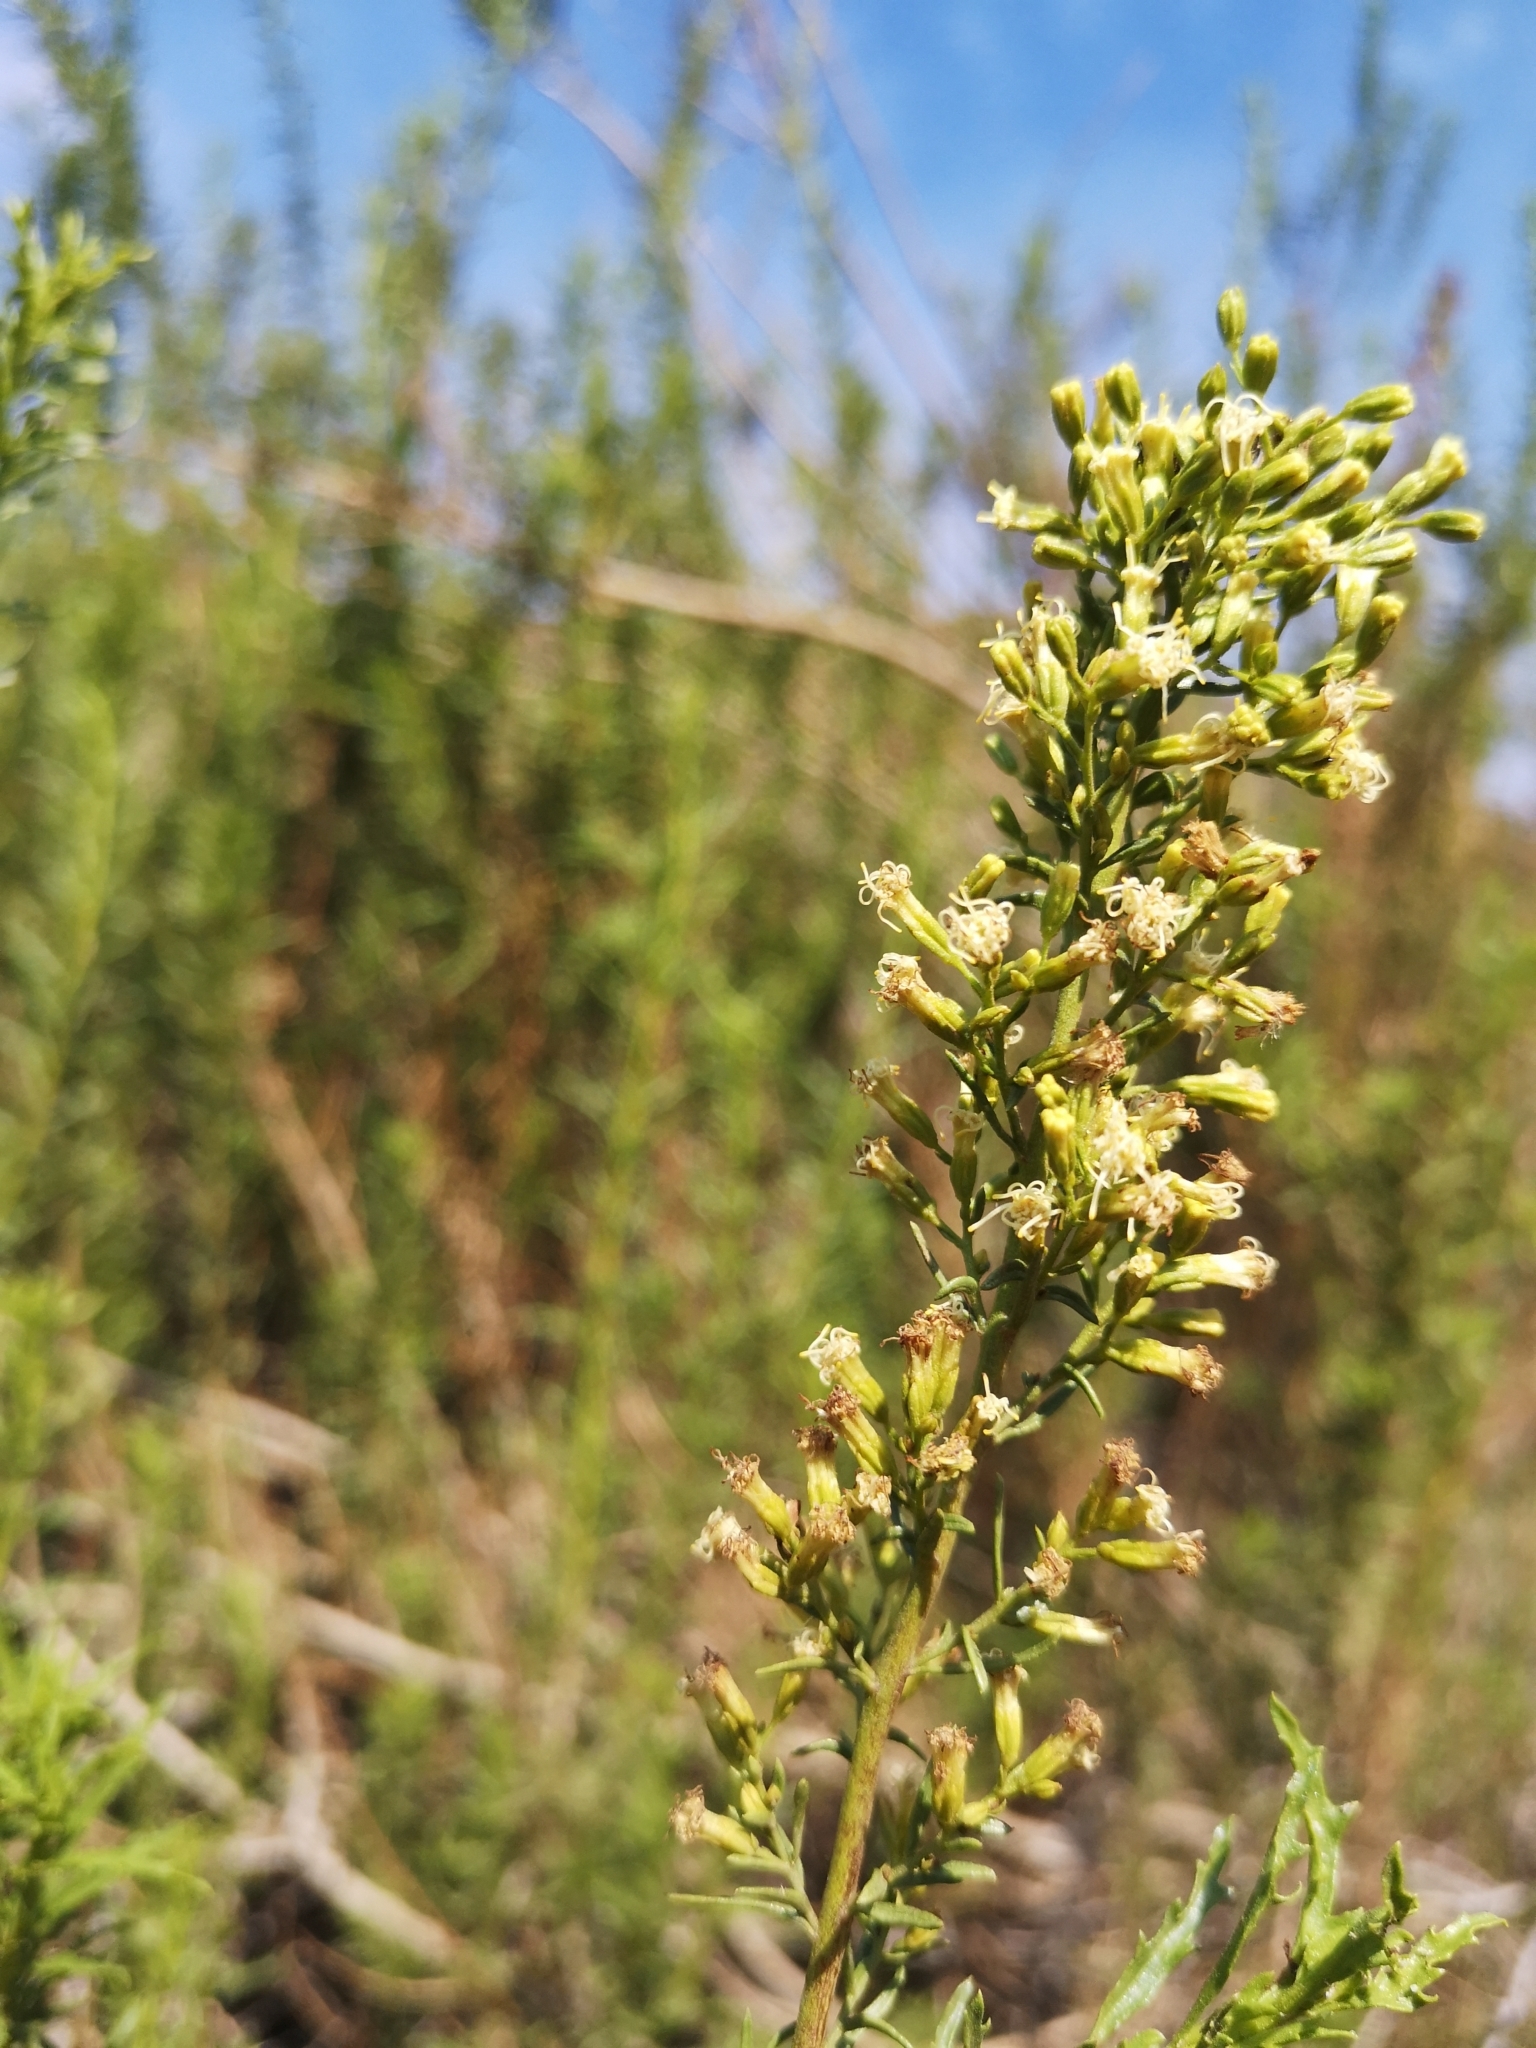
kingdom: Plantae
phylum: Tracheophyta
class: Magnoliopsida
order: Asterales
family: Asteraceae
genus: Ophryosporus
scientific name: Ophryosporus paradoxus
